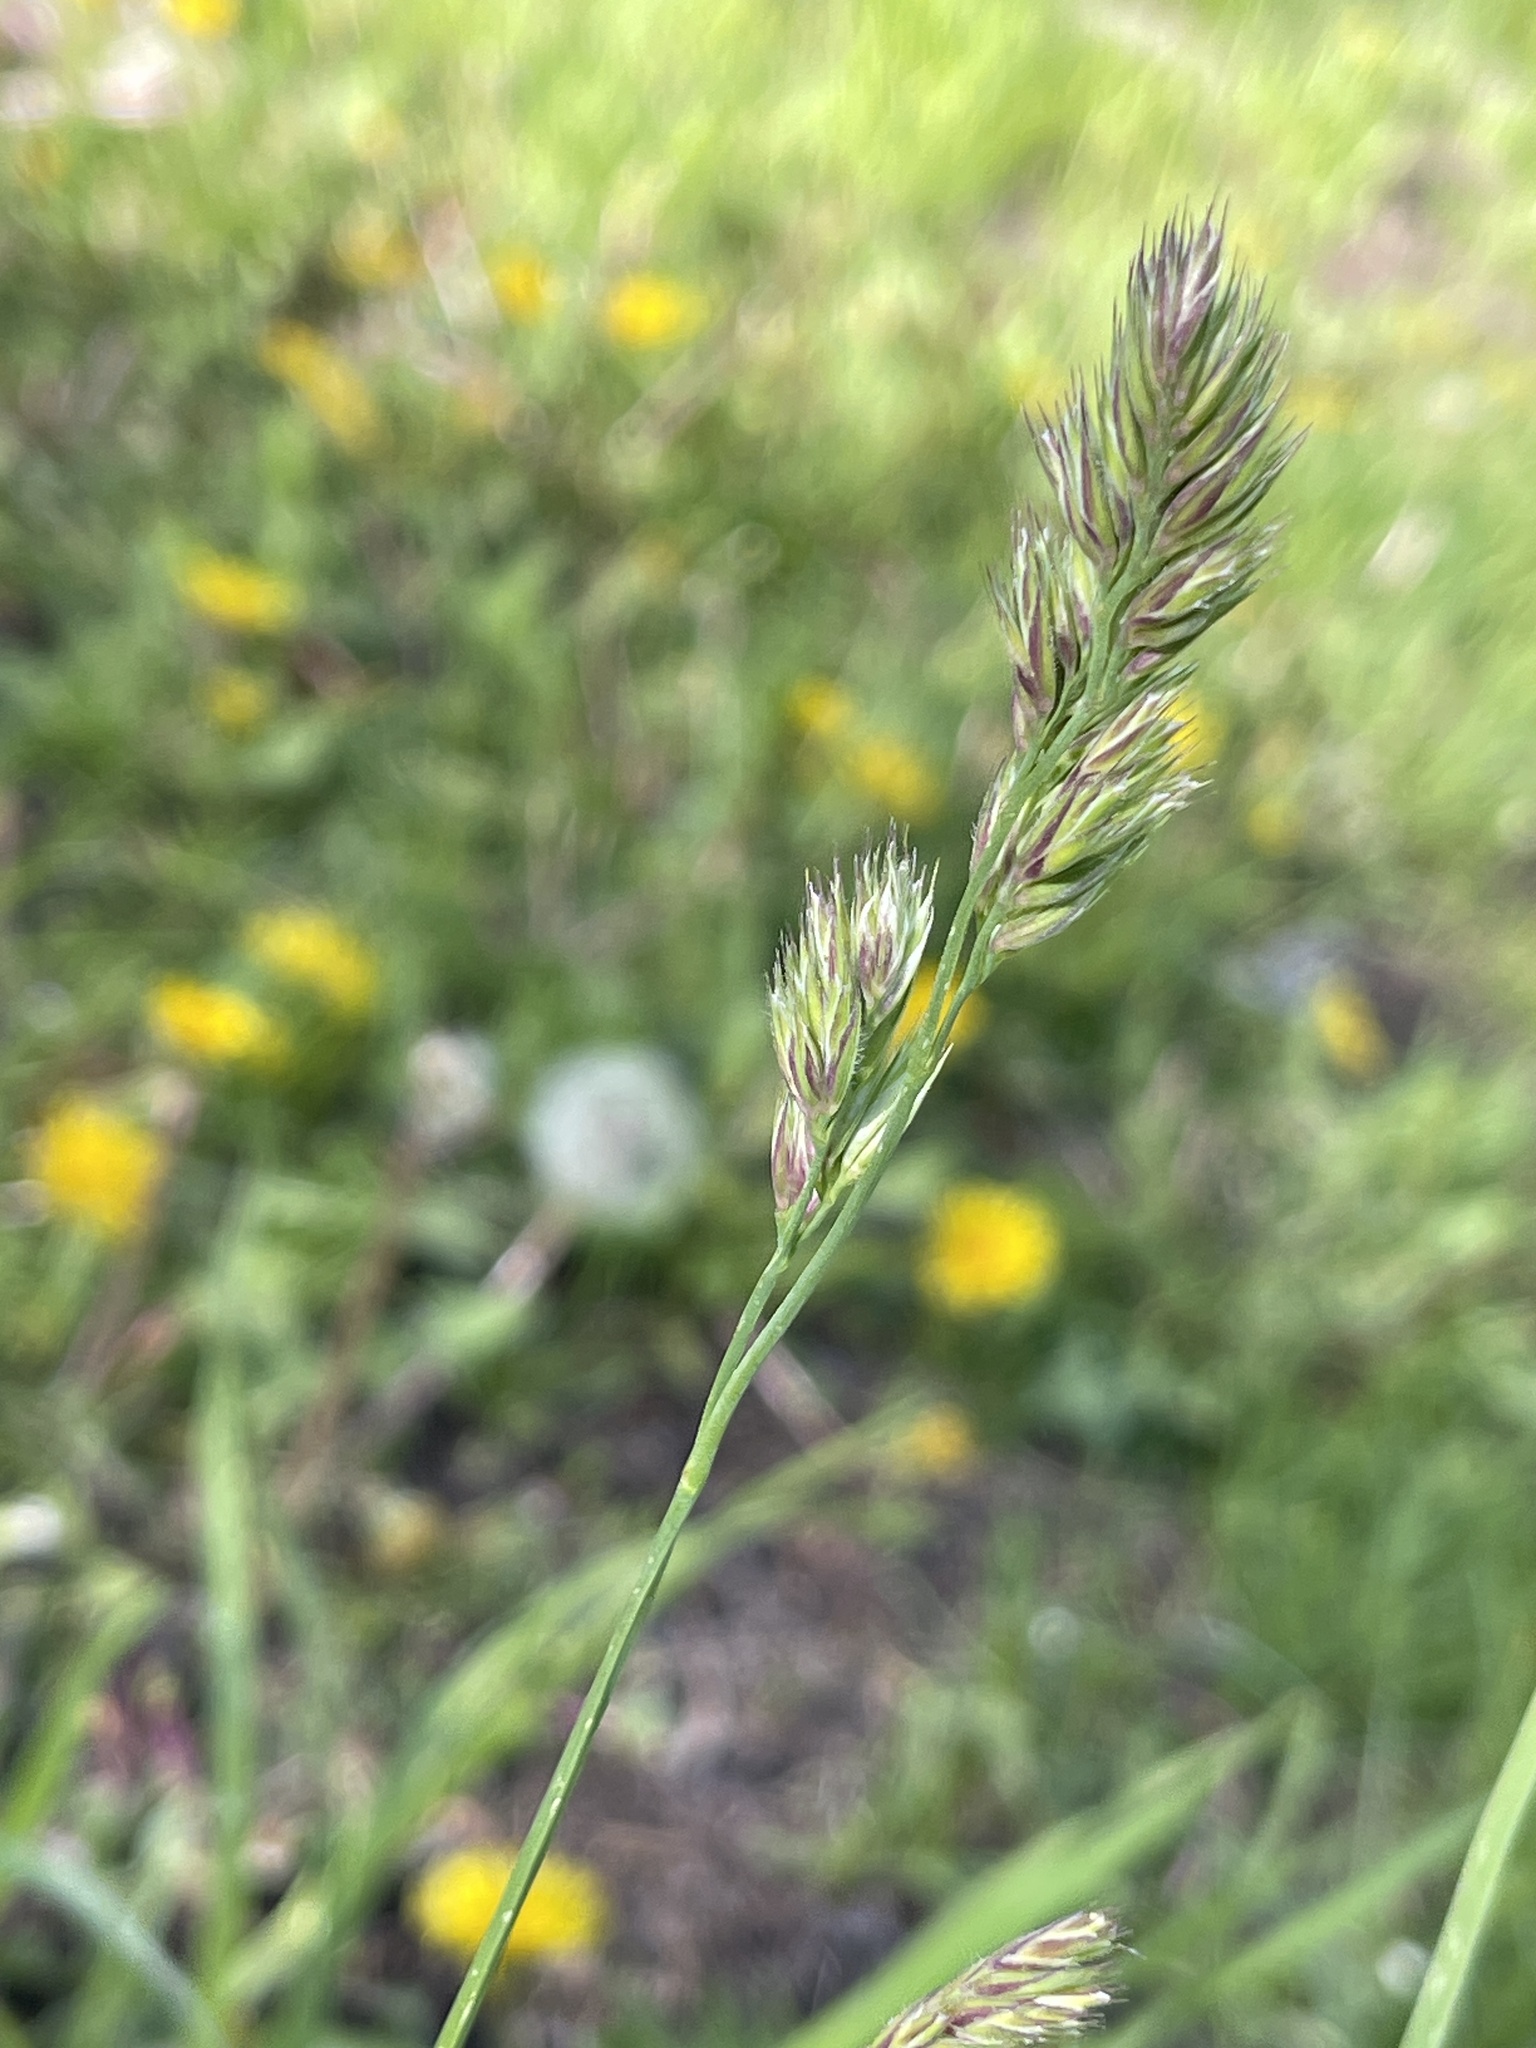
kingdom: Plantae
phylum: Tracheophyta
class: Liliopsida
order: Poales
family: Poaceae
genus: Dactylis
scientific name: Dactylis glomerata
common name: Orchardgrass
